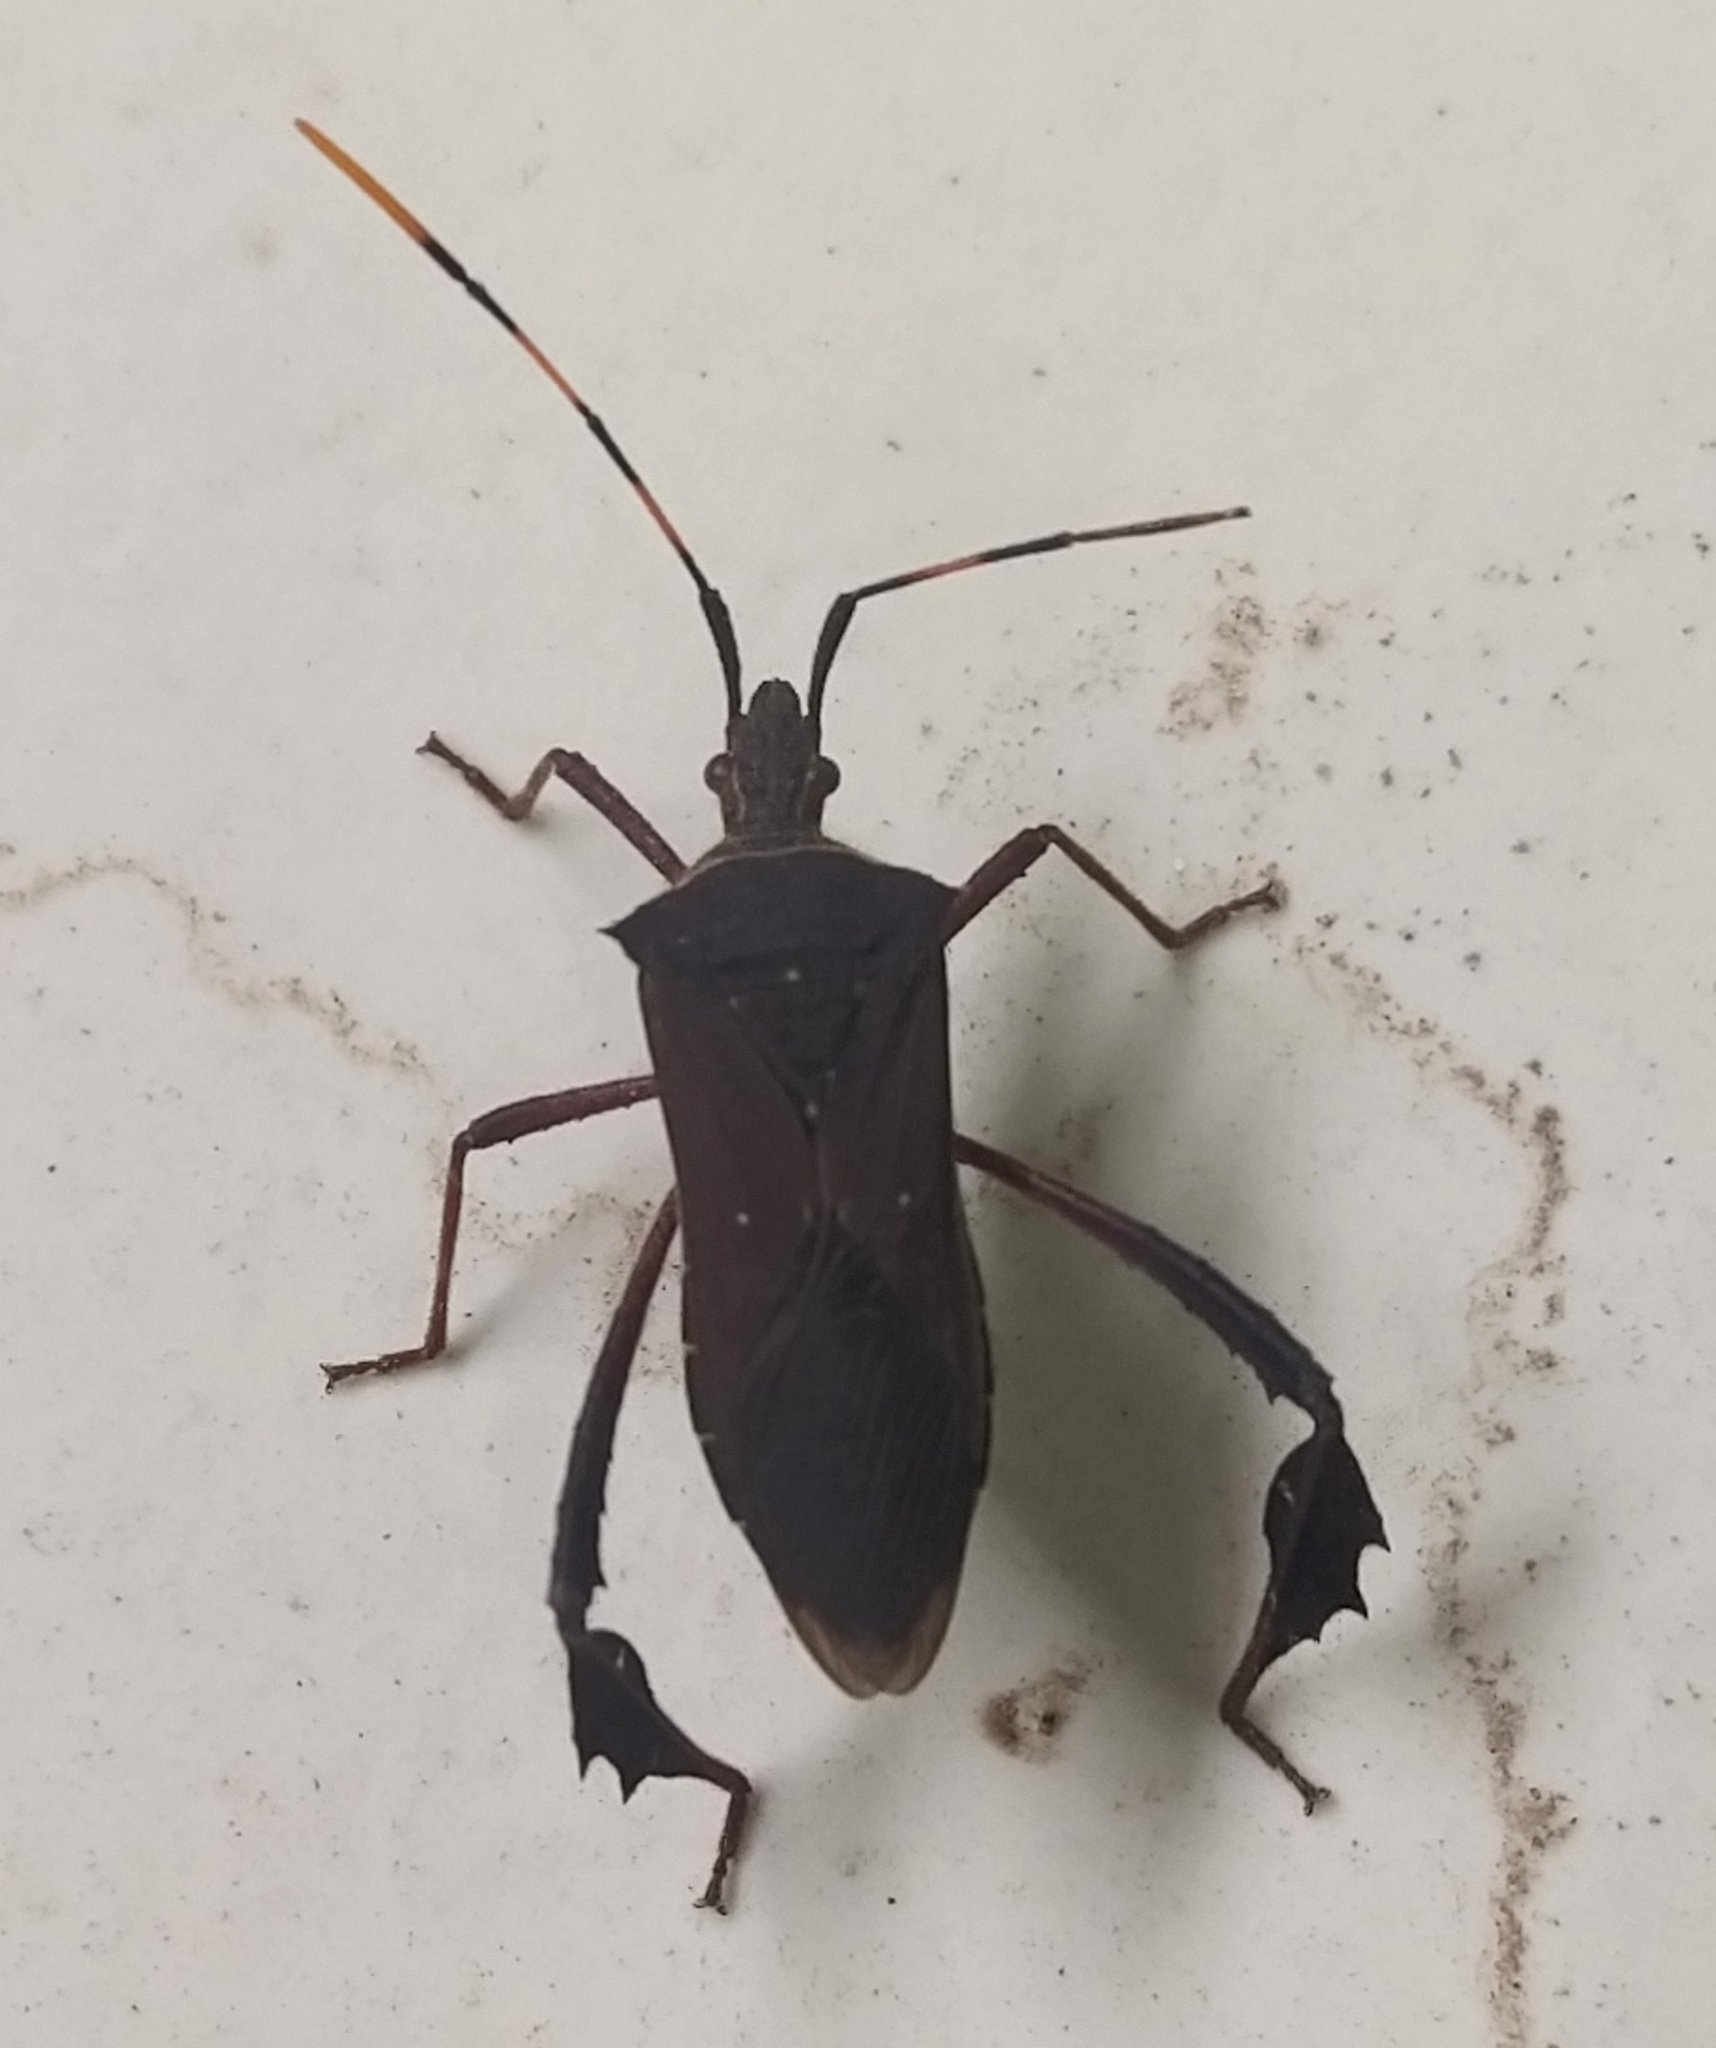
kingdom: Animalia
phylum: Arthropoda
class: Insecta
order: Hemiptera
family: Coreidae
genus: Leptoglossus
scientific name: Leptoglossus gonagra
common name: Citron bug
